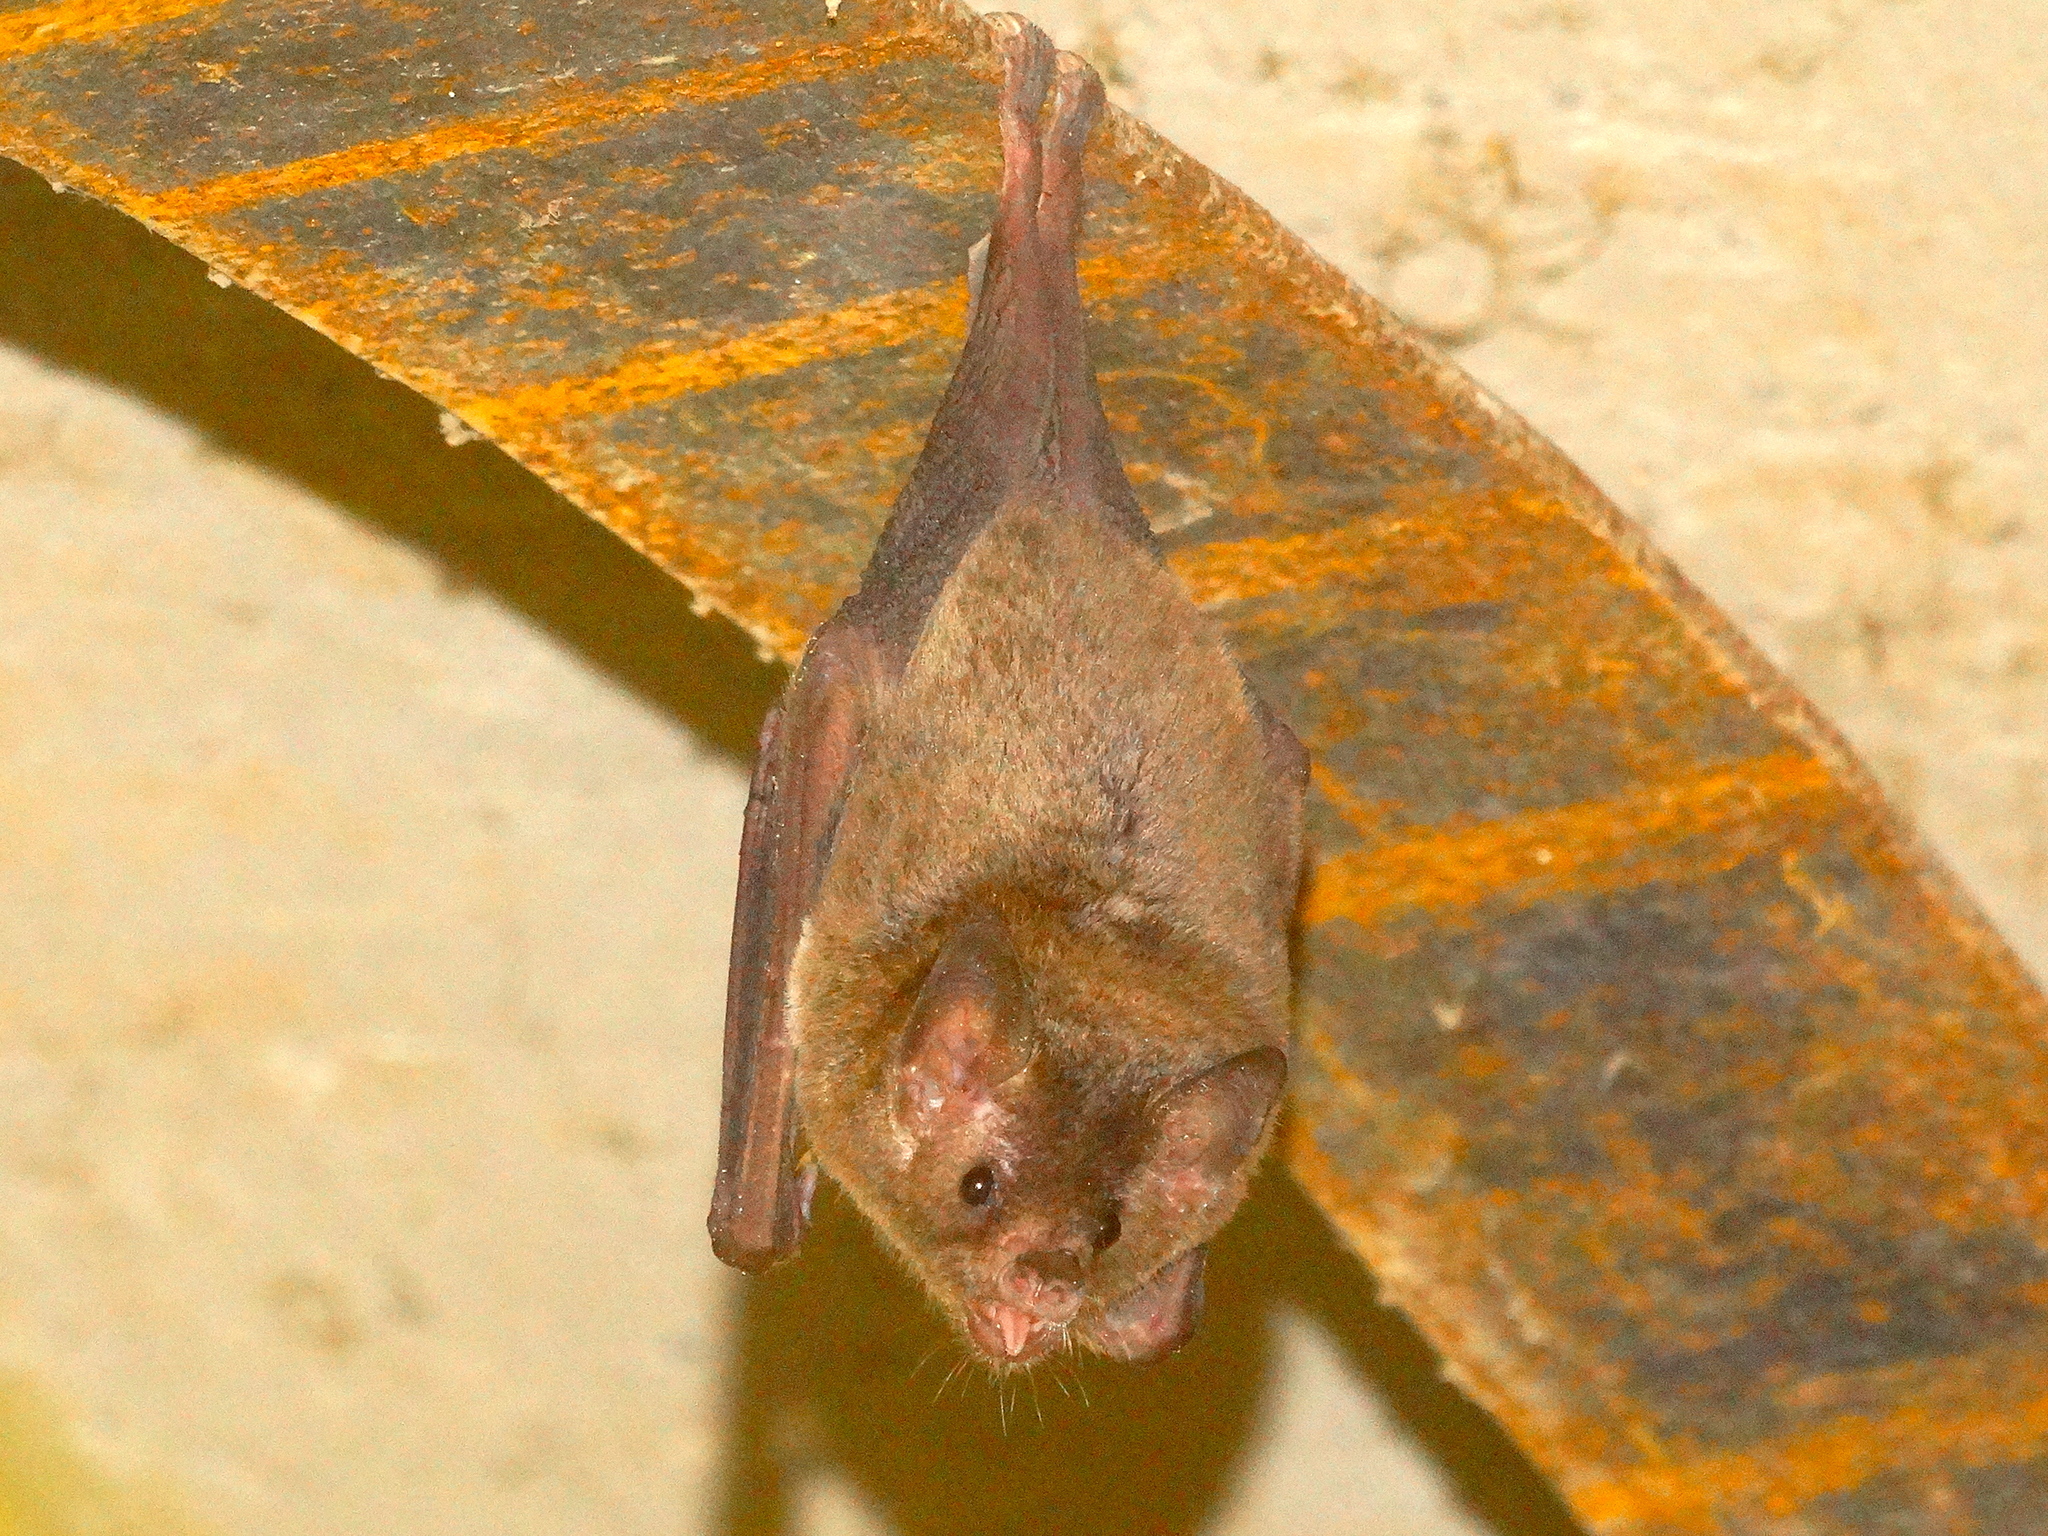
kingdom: Animalia
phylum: Chordata
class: Mammalia
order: Chiroptera
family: Phyllostomidae
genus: Glossophaga
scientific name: Glossophaga soricina
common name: Pallas's long-tongued bat
